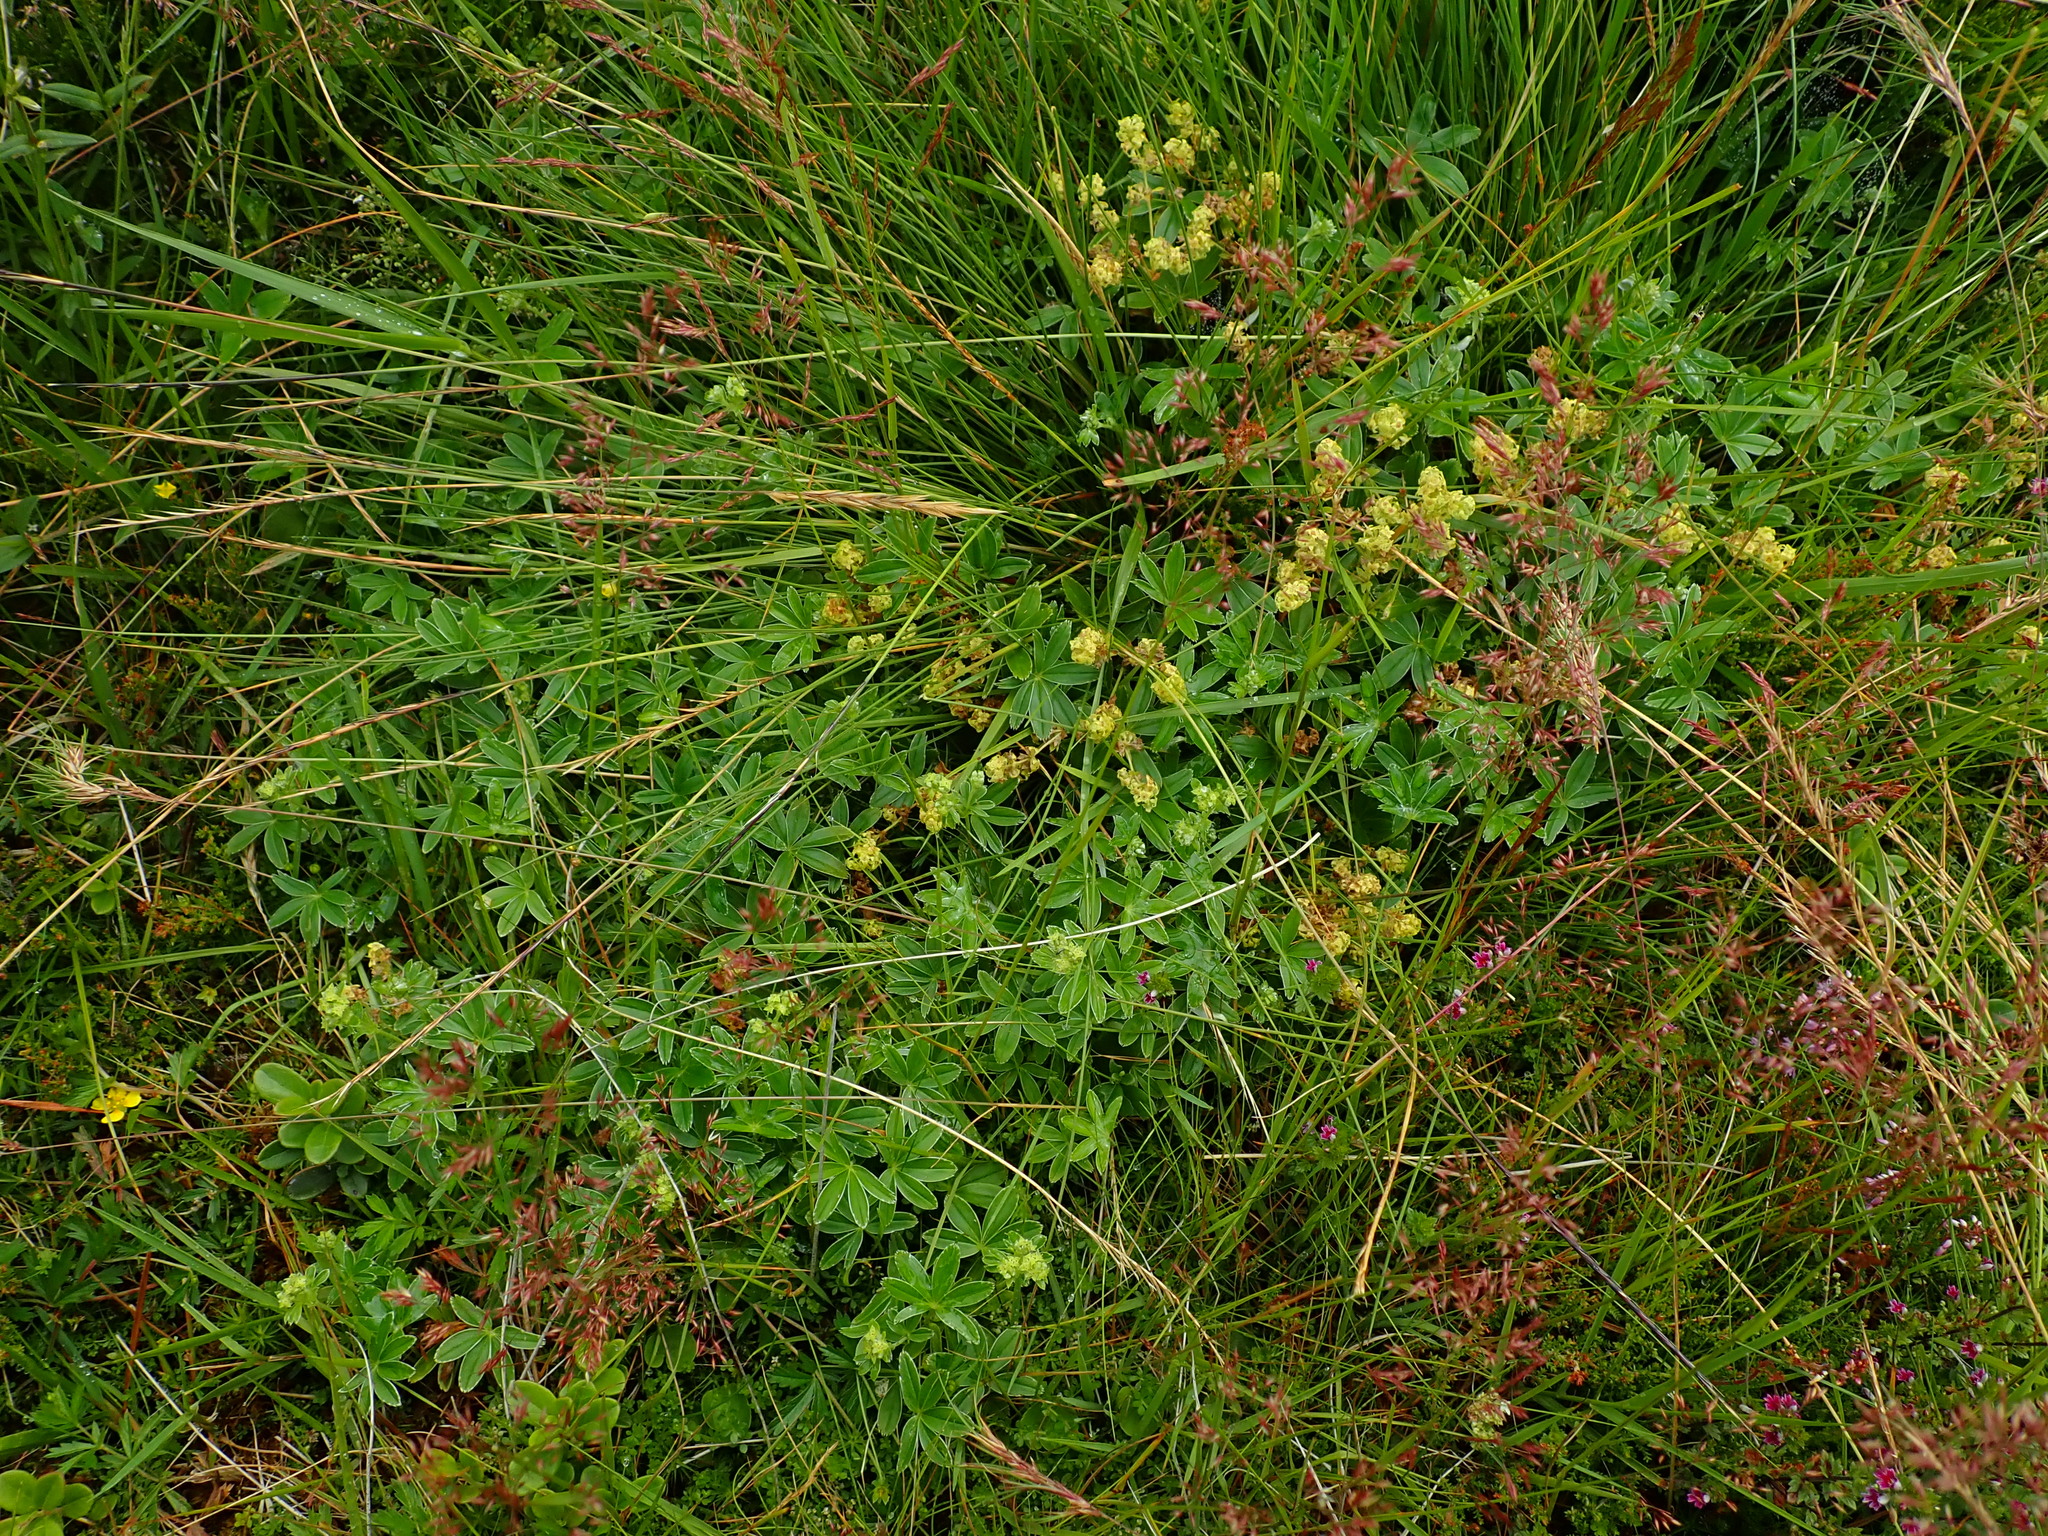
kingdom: Plantae
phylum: Tracheophyta
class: Magnoliopsida
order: Rosales
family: Rosaceae
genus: Alchemilla
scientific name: Alchemilla alpina
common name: Alpine lady's-mantle
